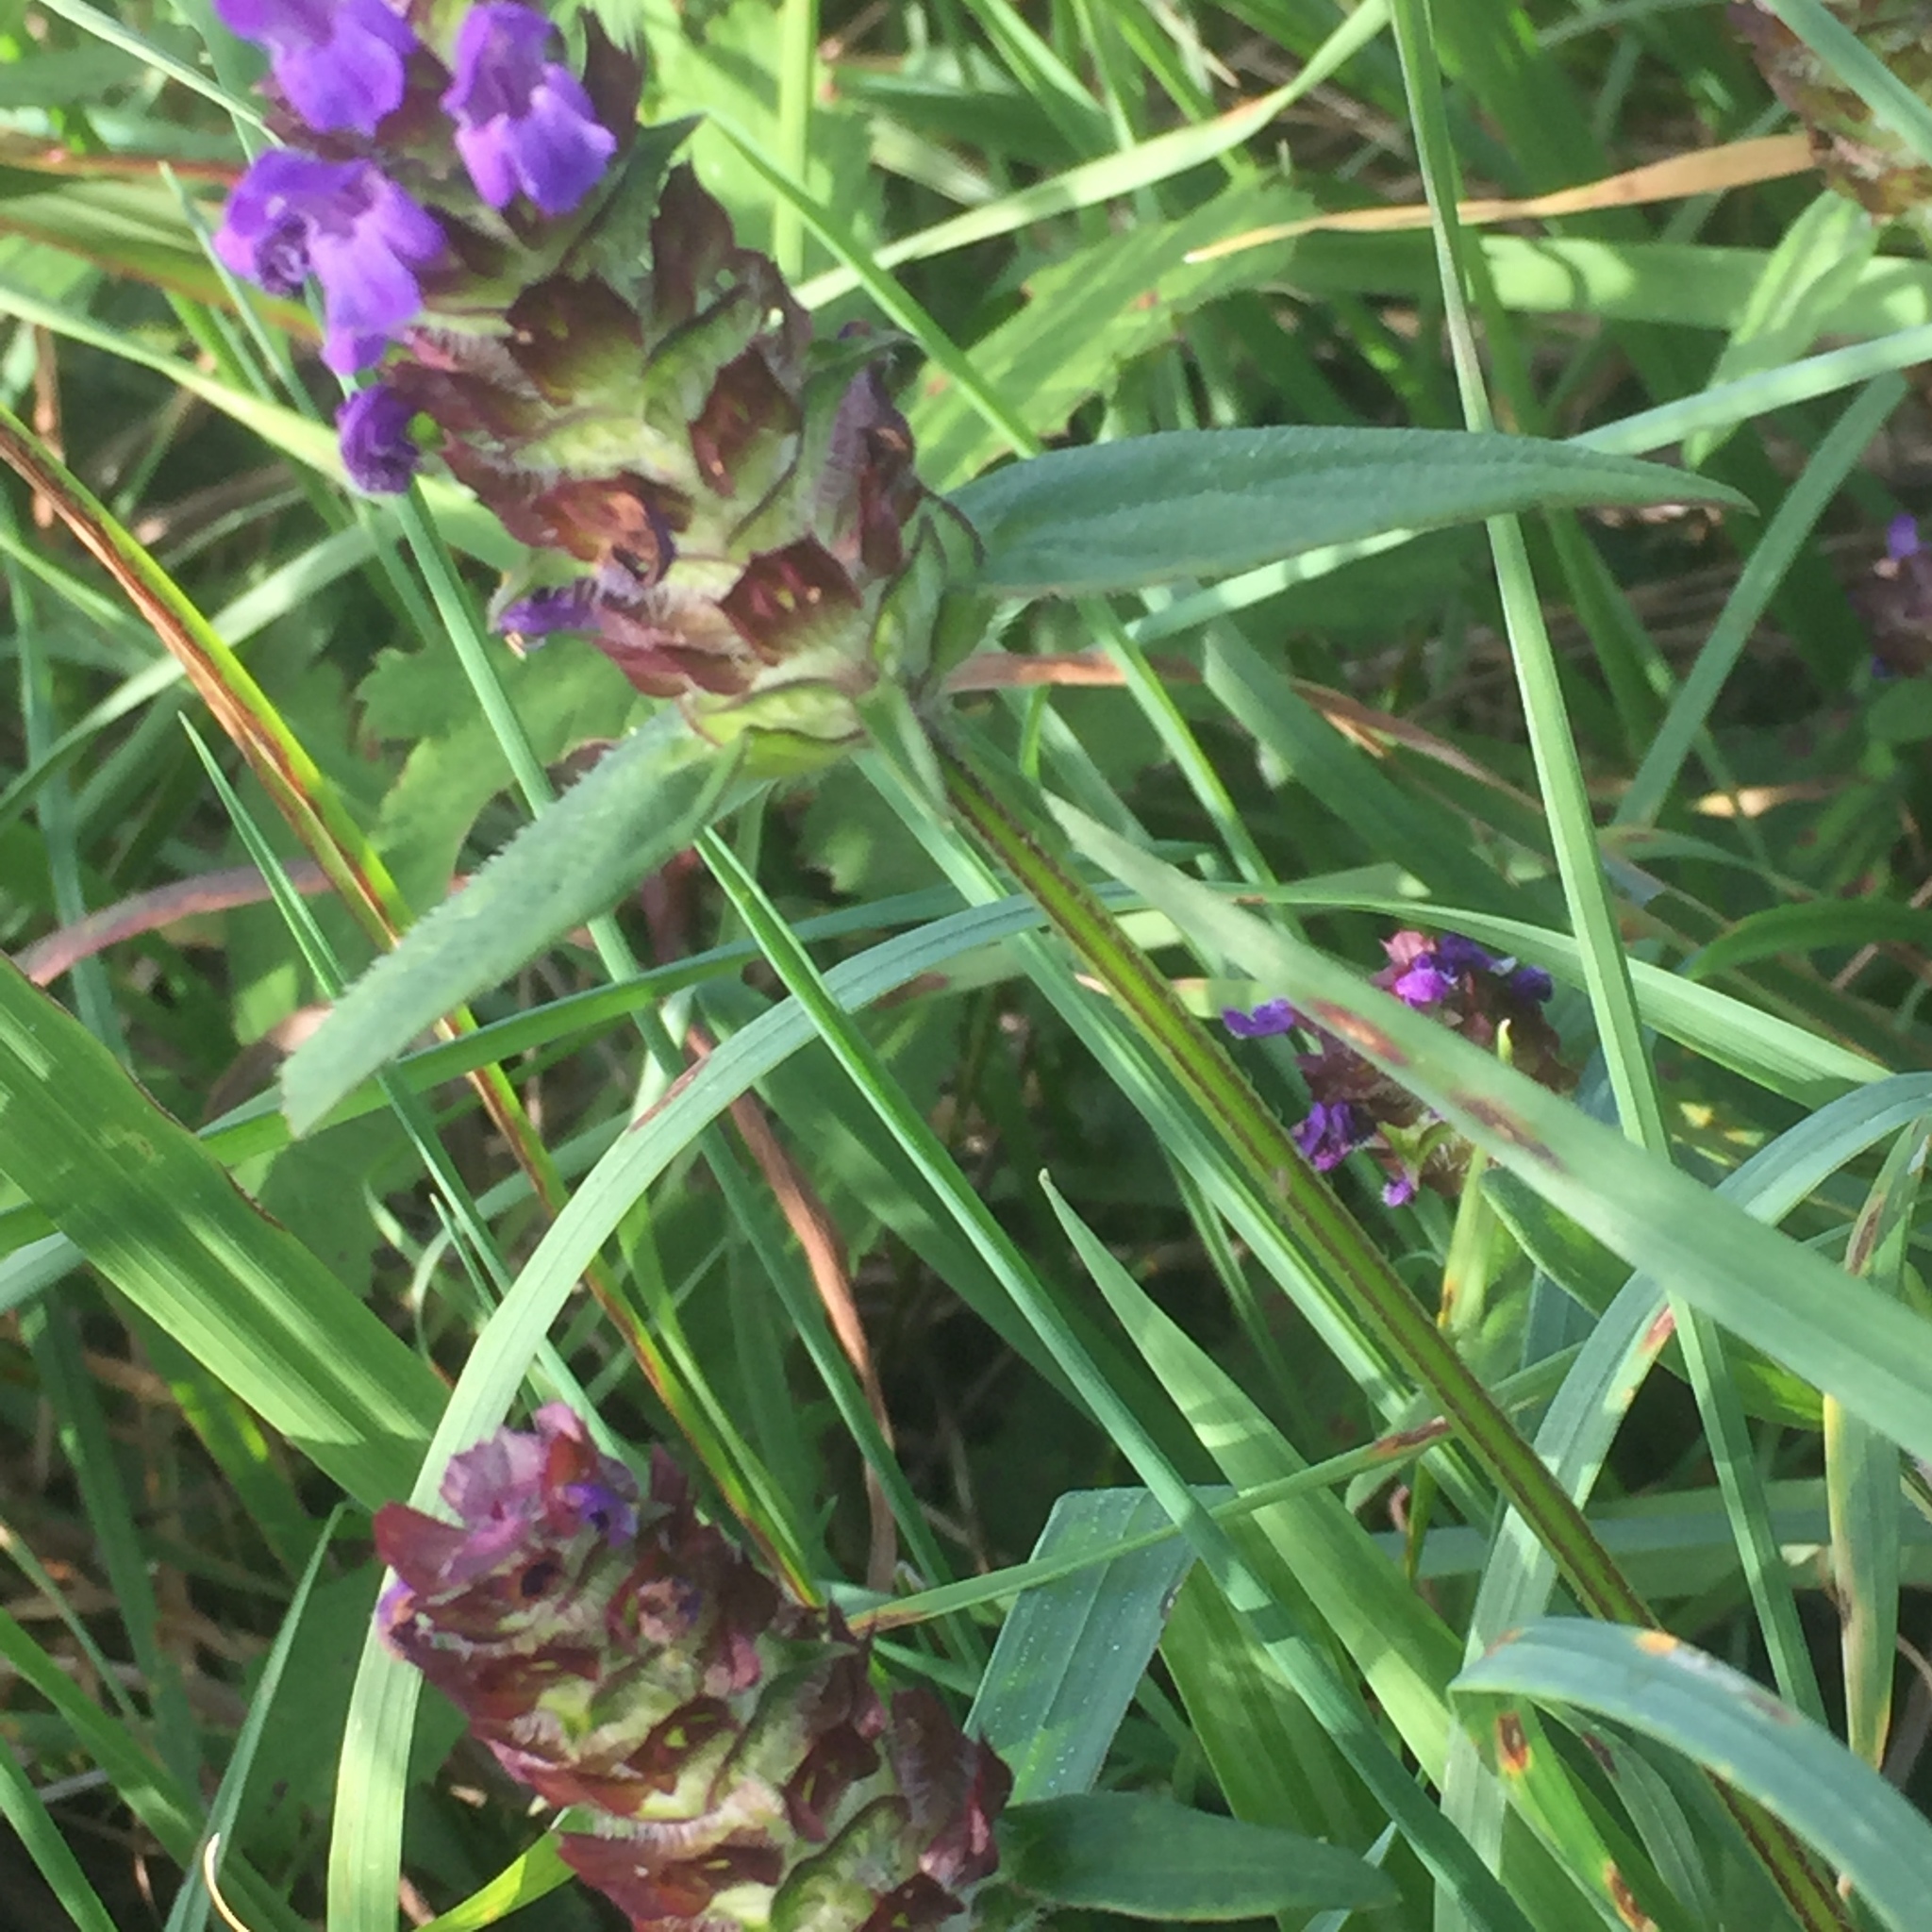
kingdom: Plantae
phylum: Tracheophyta
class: Magnoliopsida
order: Lamiales
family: Lamiaceae
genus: Prunella
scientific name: Prunella vulgaris
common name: Heal-all
